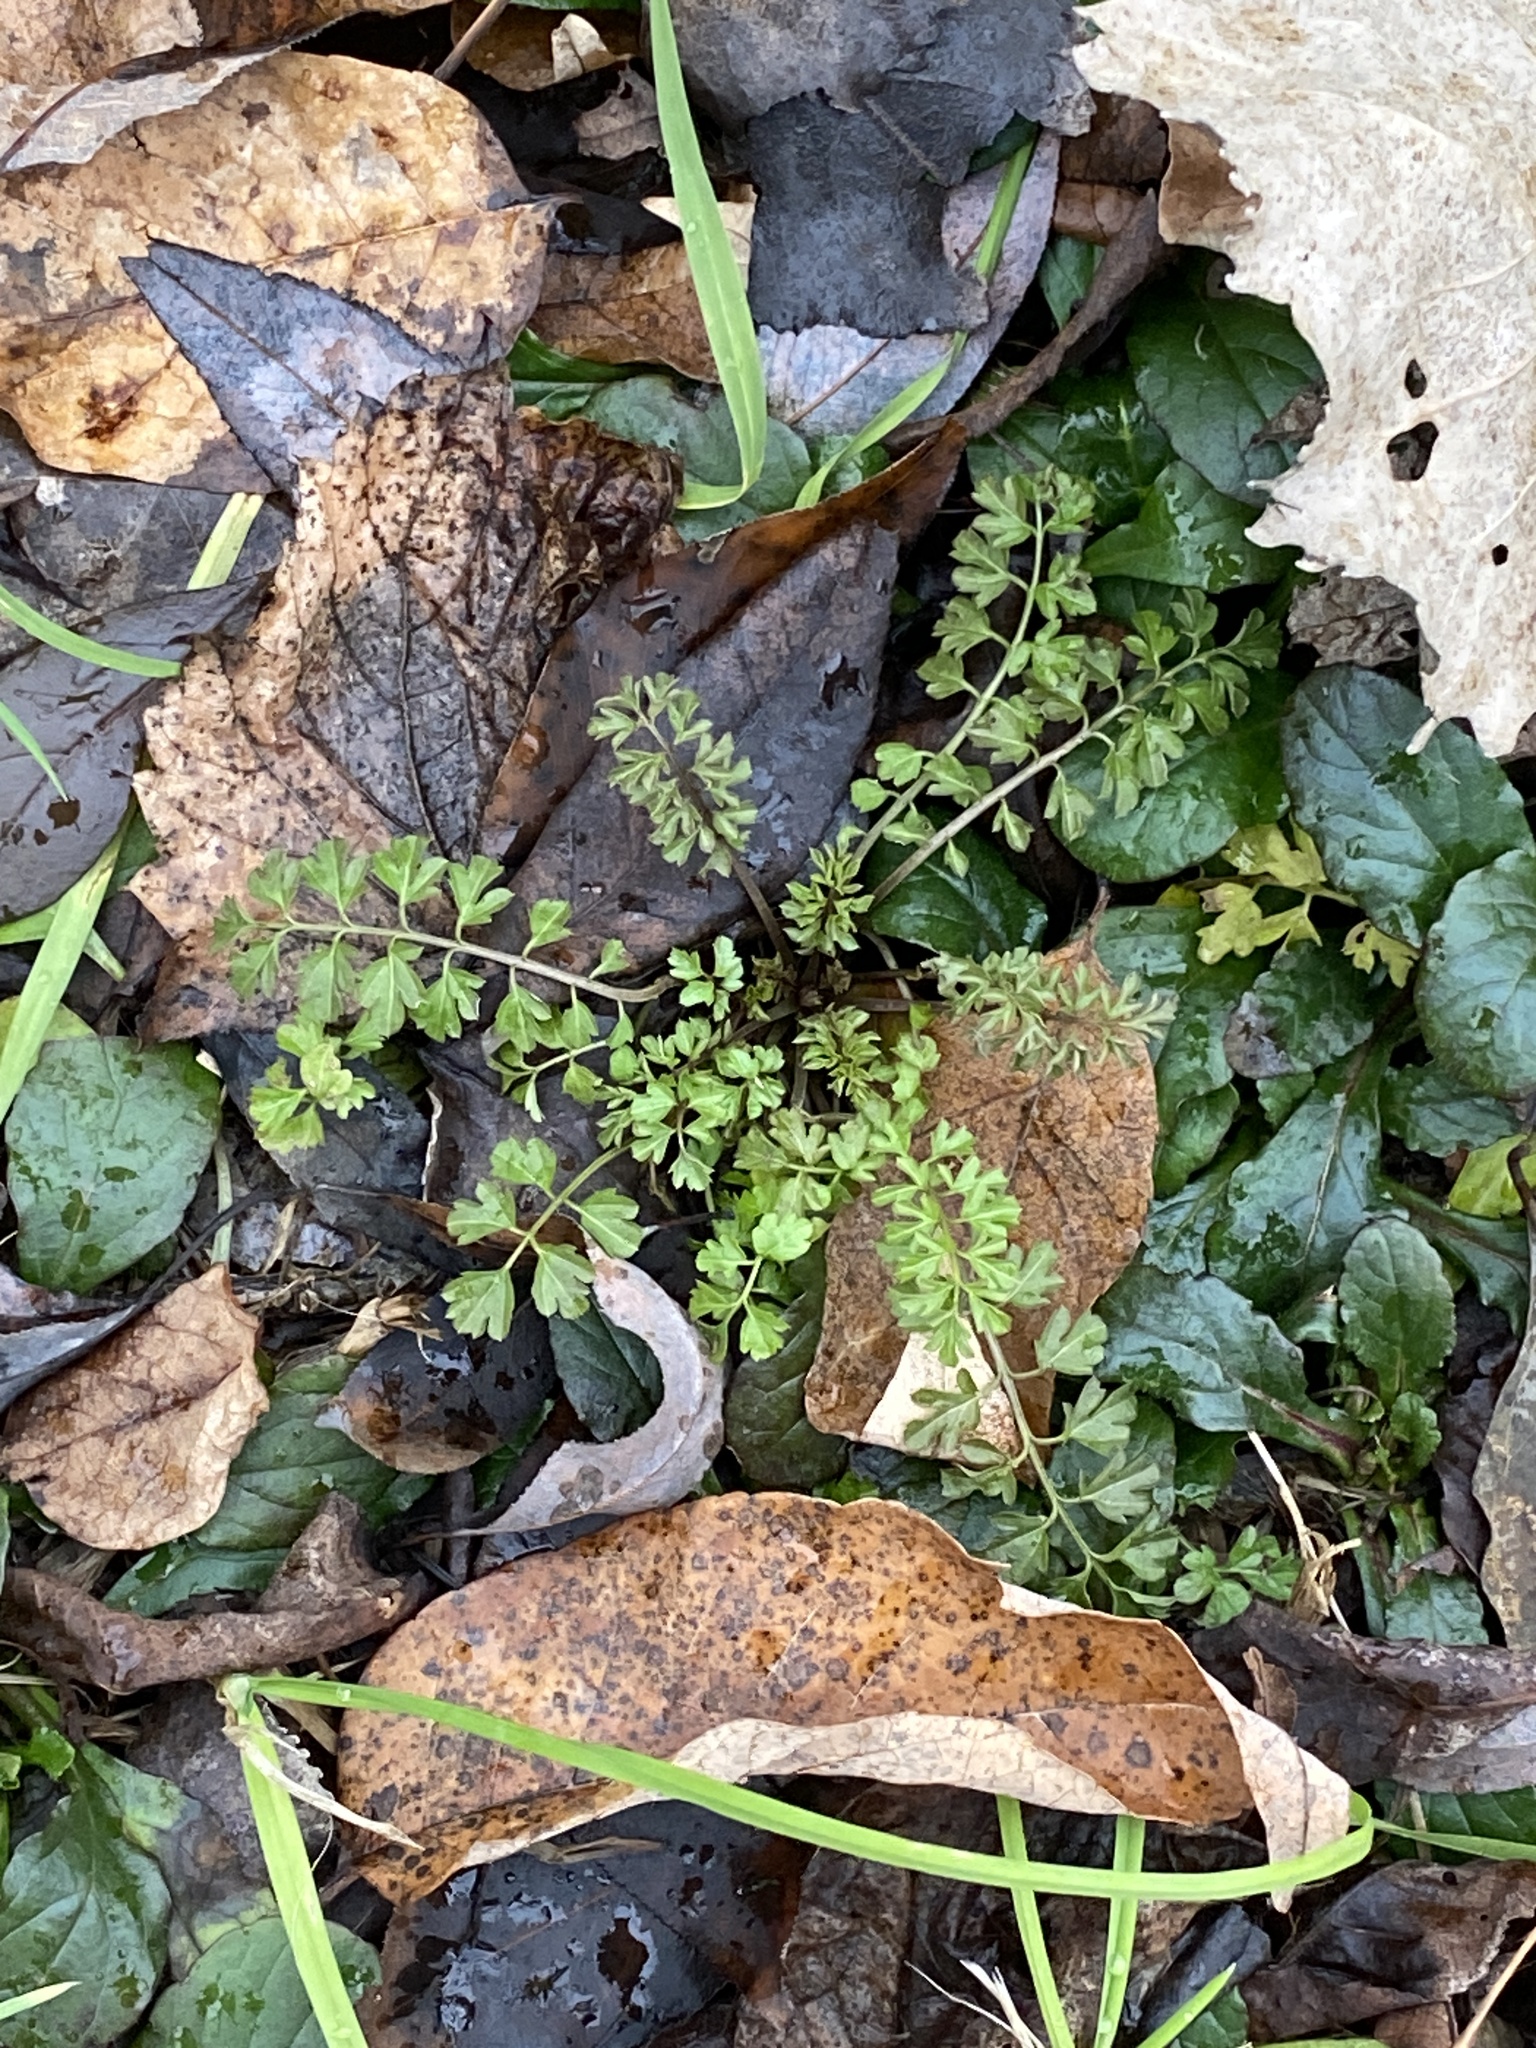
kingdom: Plantae
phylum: Tracheophyta
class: Magnoliopsida
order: Brassicales
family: Brassicaceae
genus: Cardamine
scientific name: Cardamine impatiens
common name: Narrow-leaved bitter-cress
